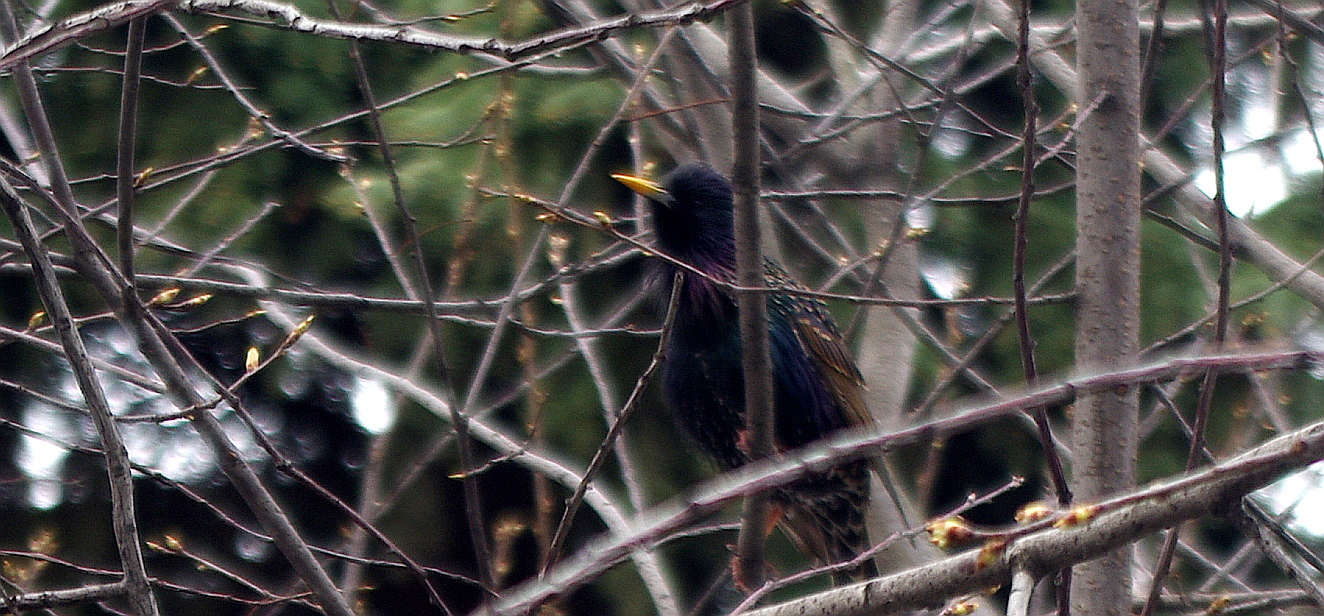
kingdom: Animalia
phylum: Chordata
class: Aves
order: Passeriformes
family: Sturnidae
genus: Sturnus
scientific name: Sturnus vulgaris
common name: Common starling
